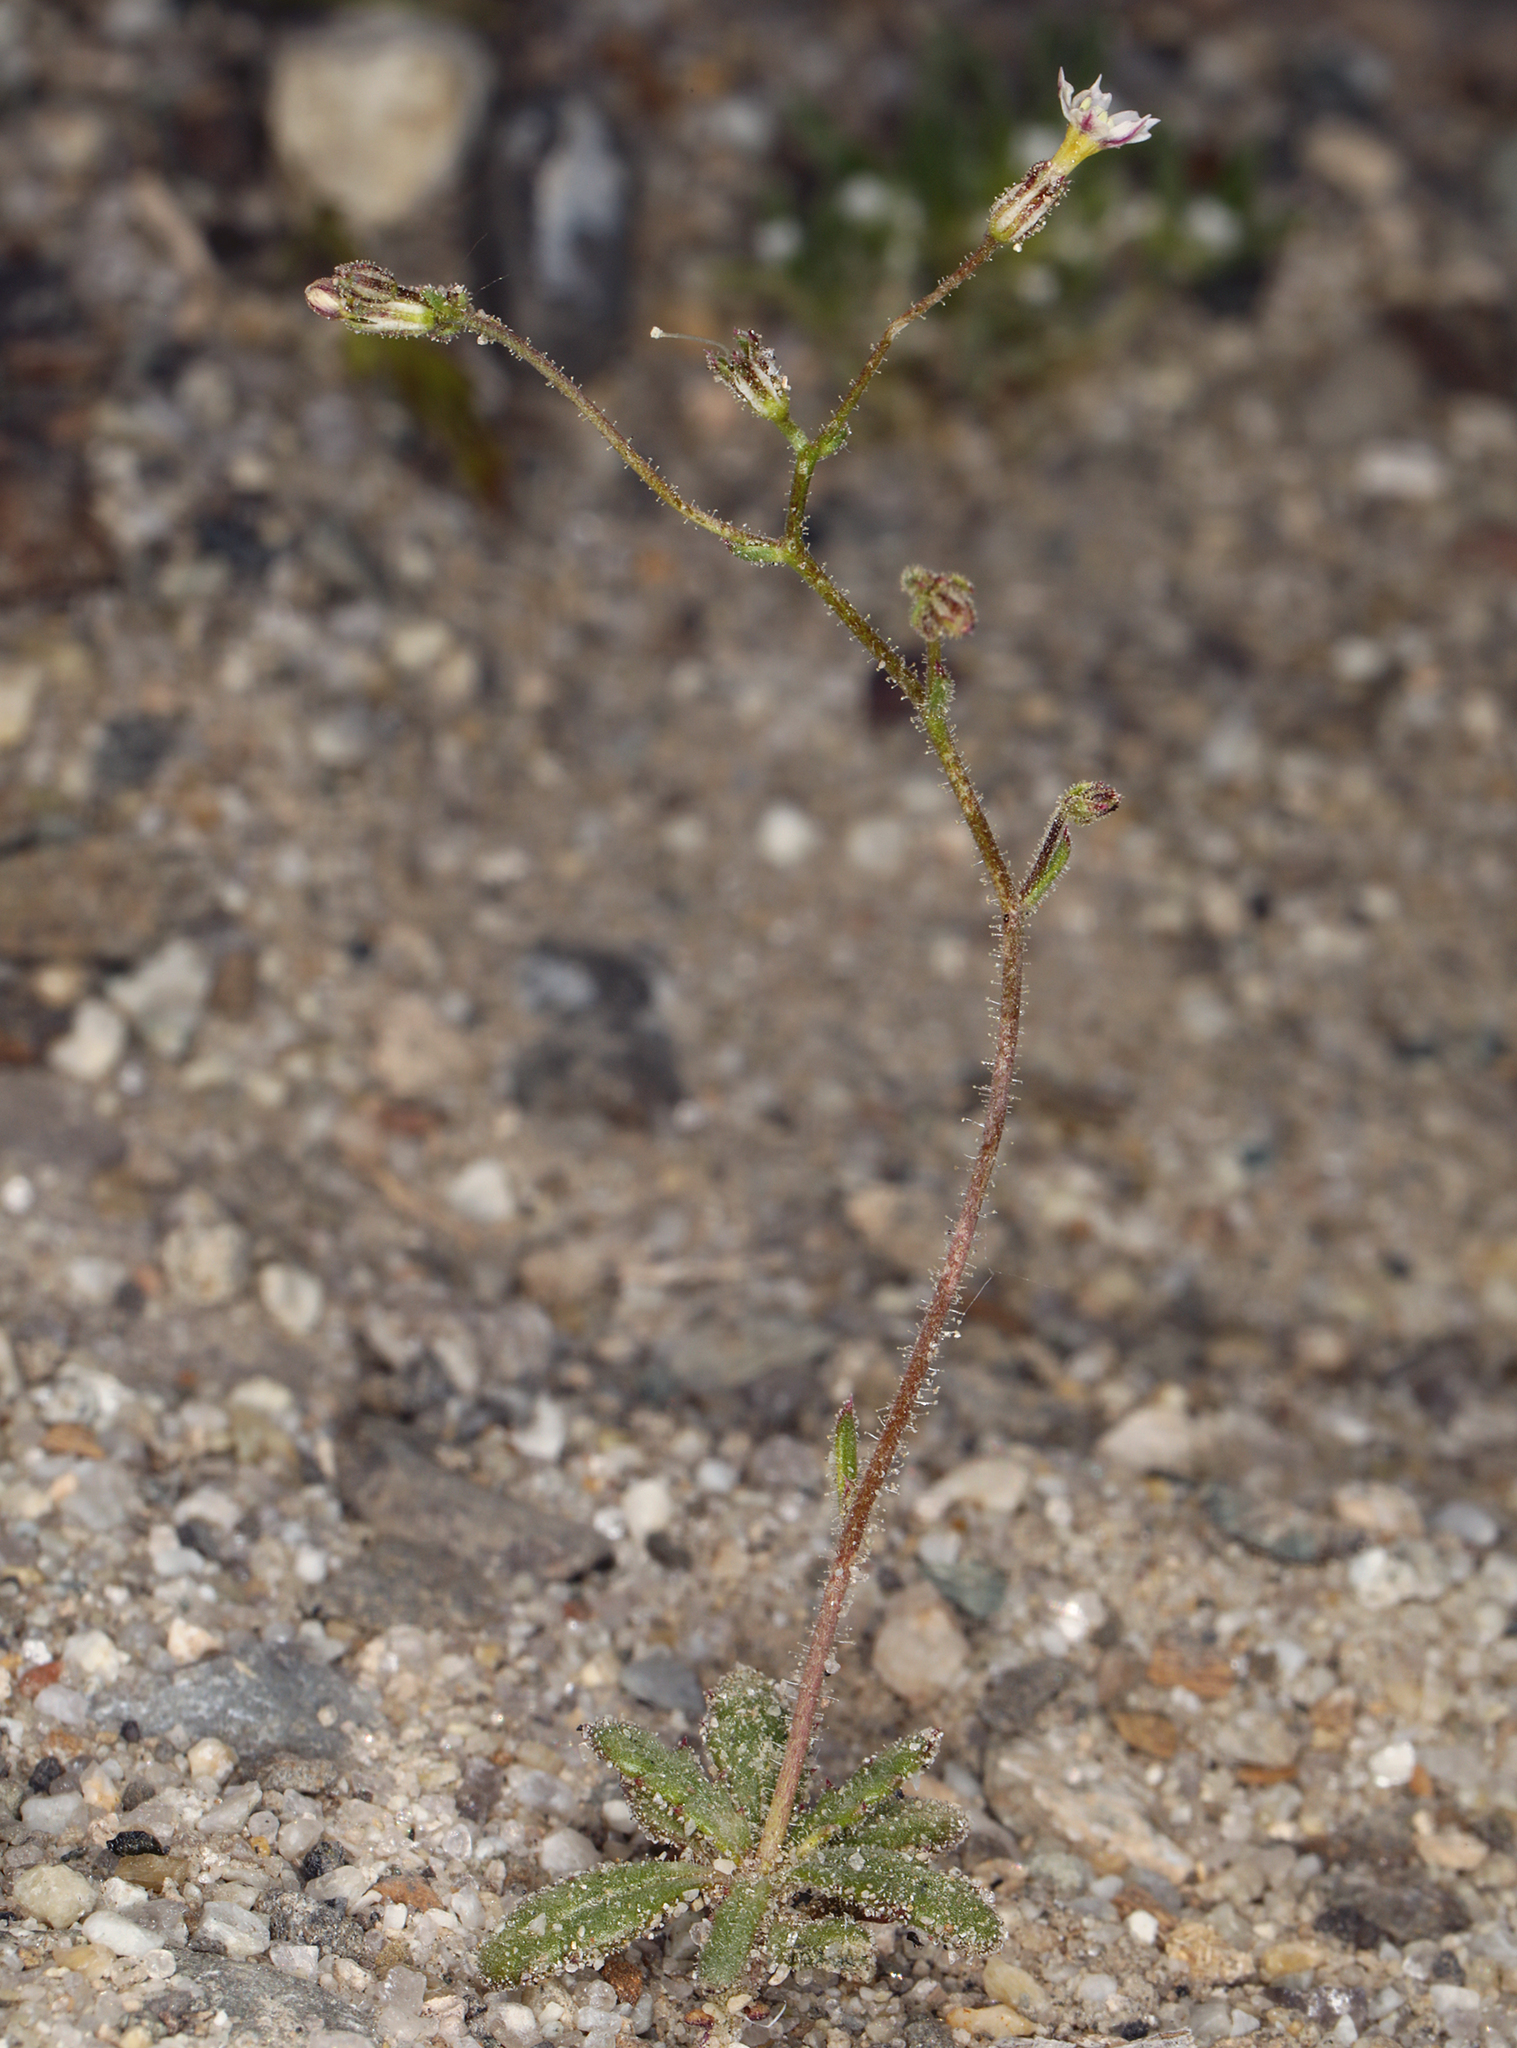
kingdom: Plantae
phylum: Tracheophyta
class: Magnoliopsida
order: Ericales
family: Polemoniaceae
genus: Aliciella
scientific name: Aliciella leptomeria
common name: Sand gilia
